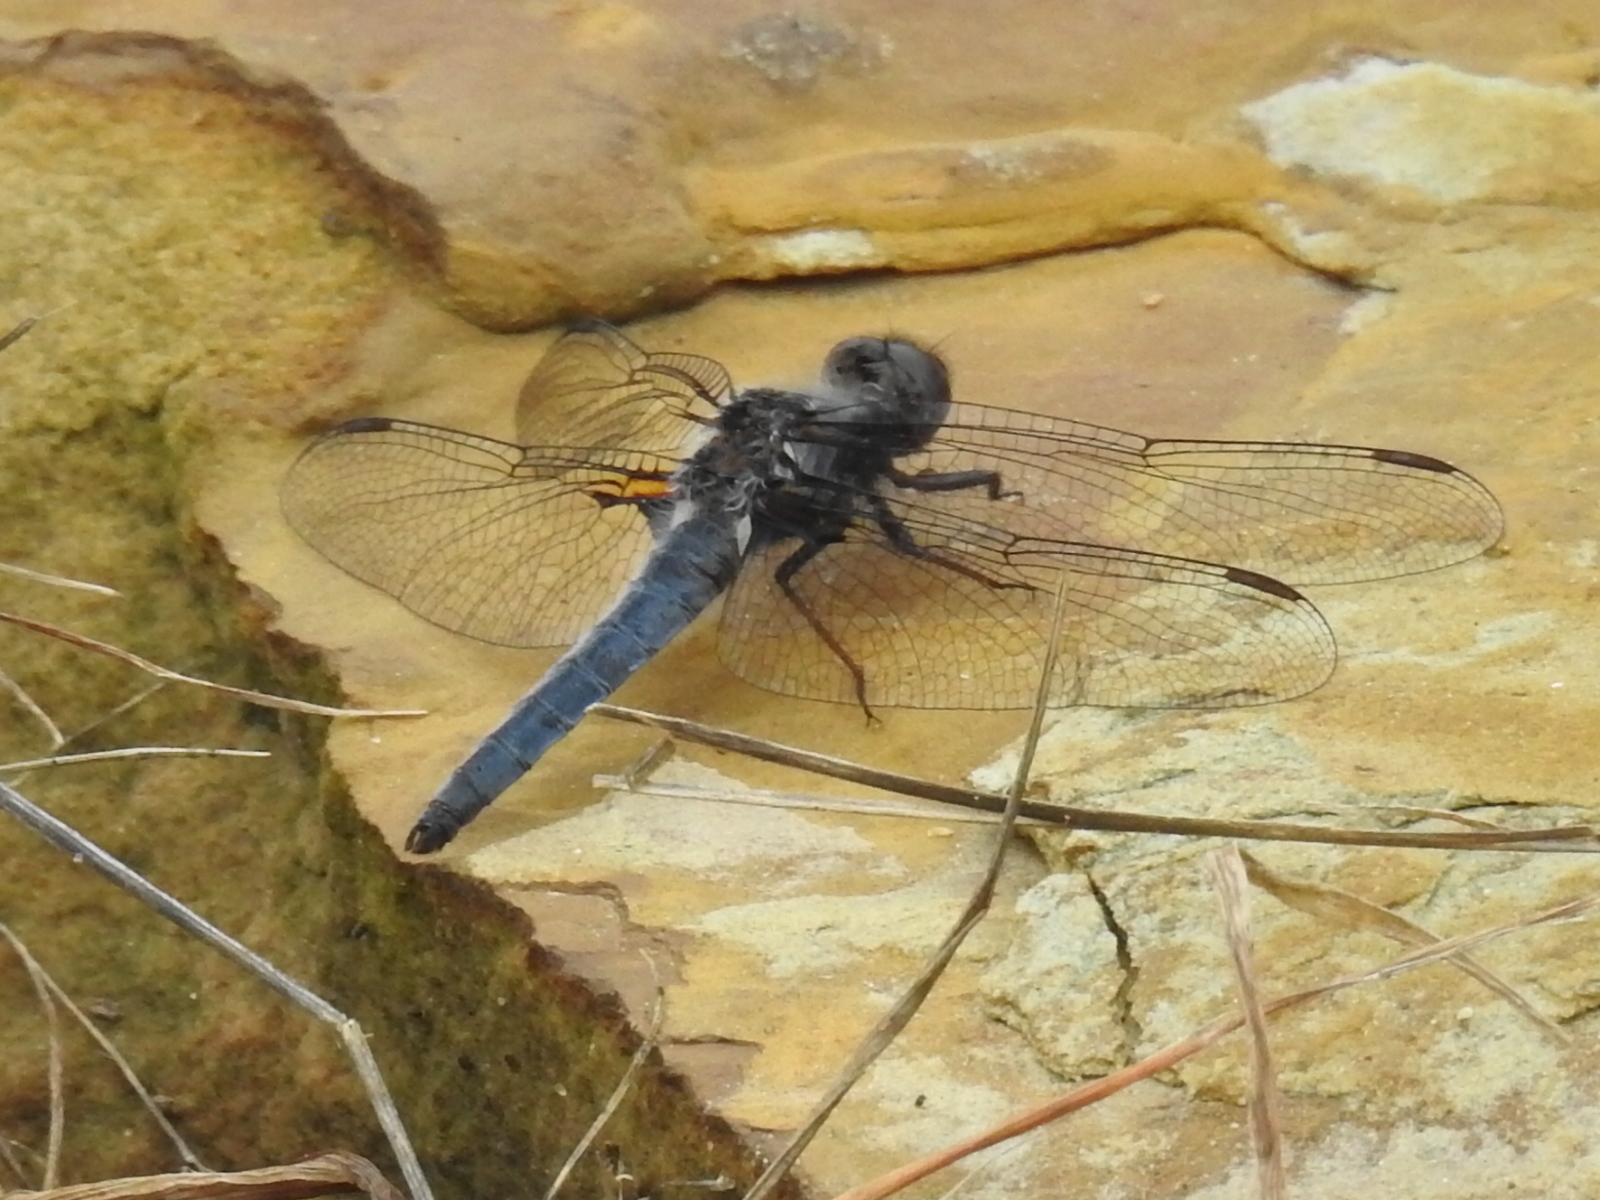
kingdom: Animalia
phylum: Arthropoda
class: Insecta
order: Odonata
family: Libellulidae
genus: Ladona
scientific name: Ladona deplanata
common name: Blue corporal
